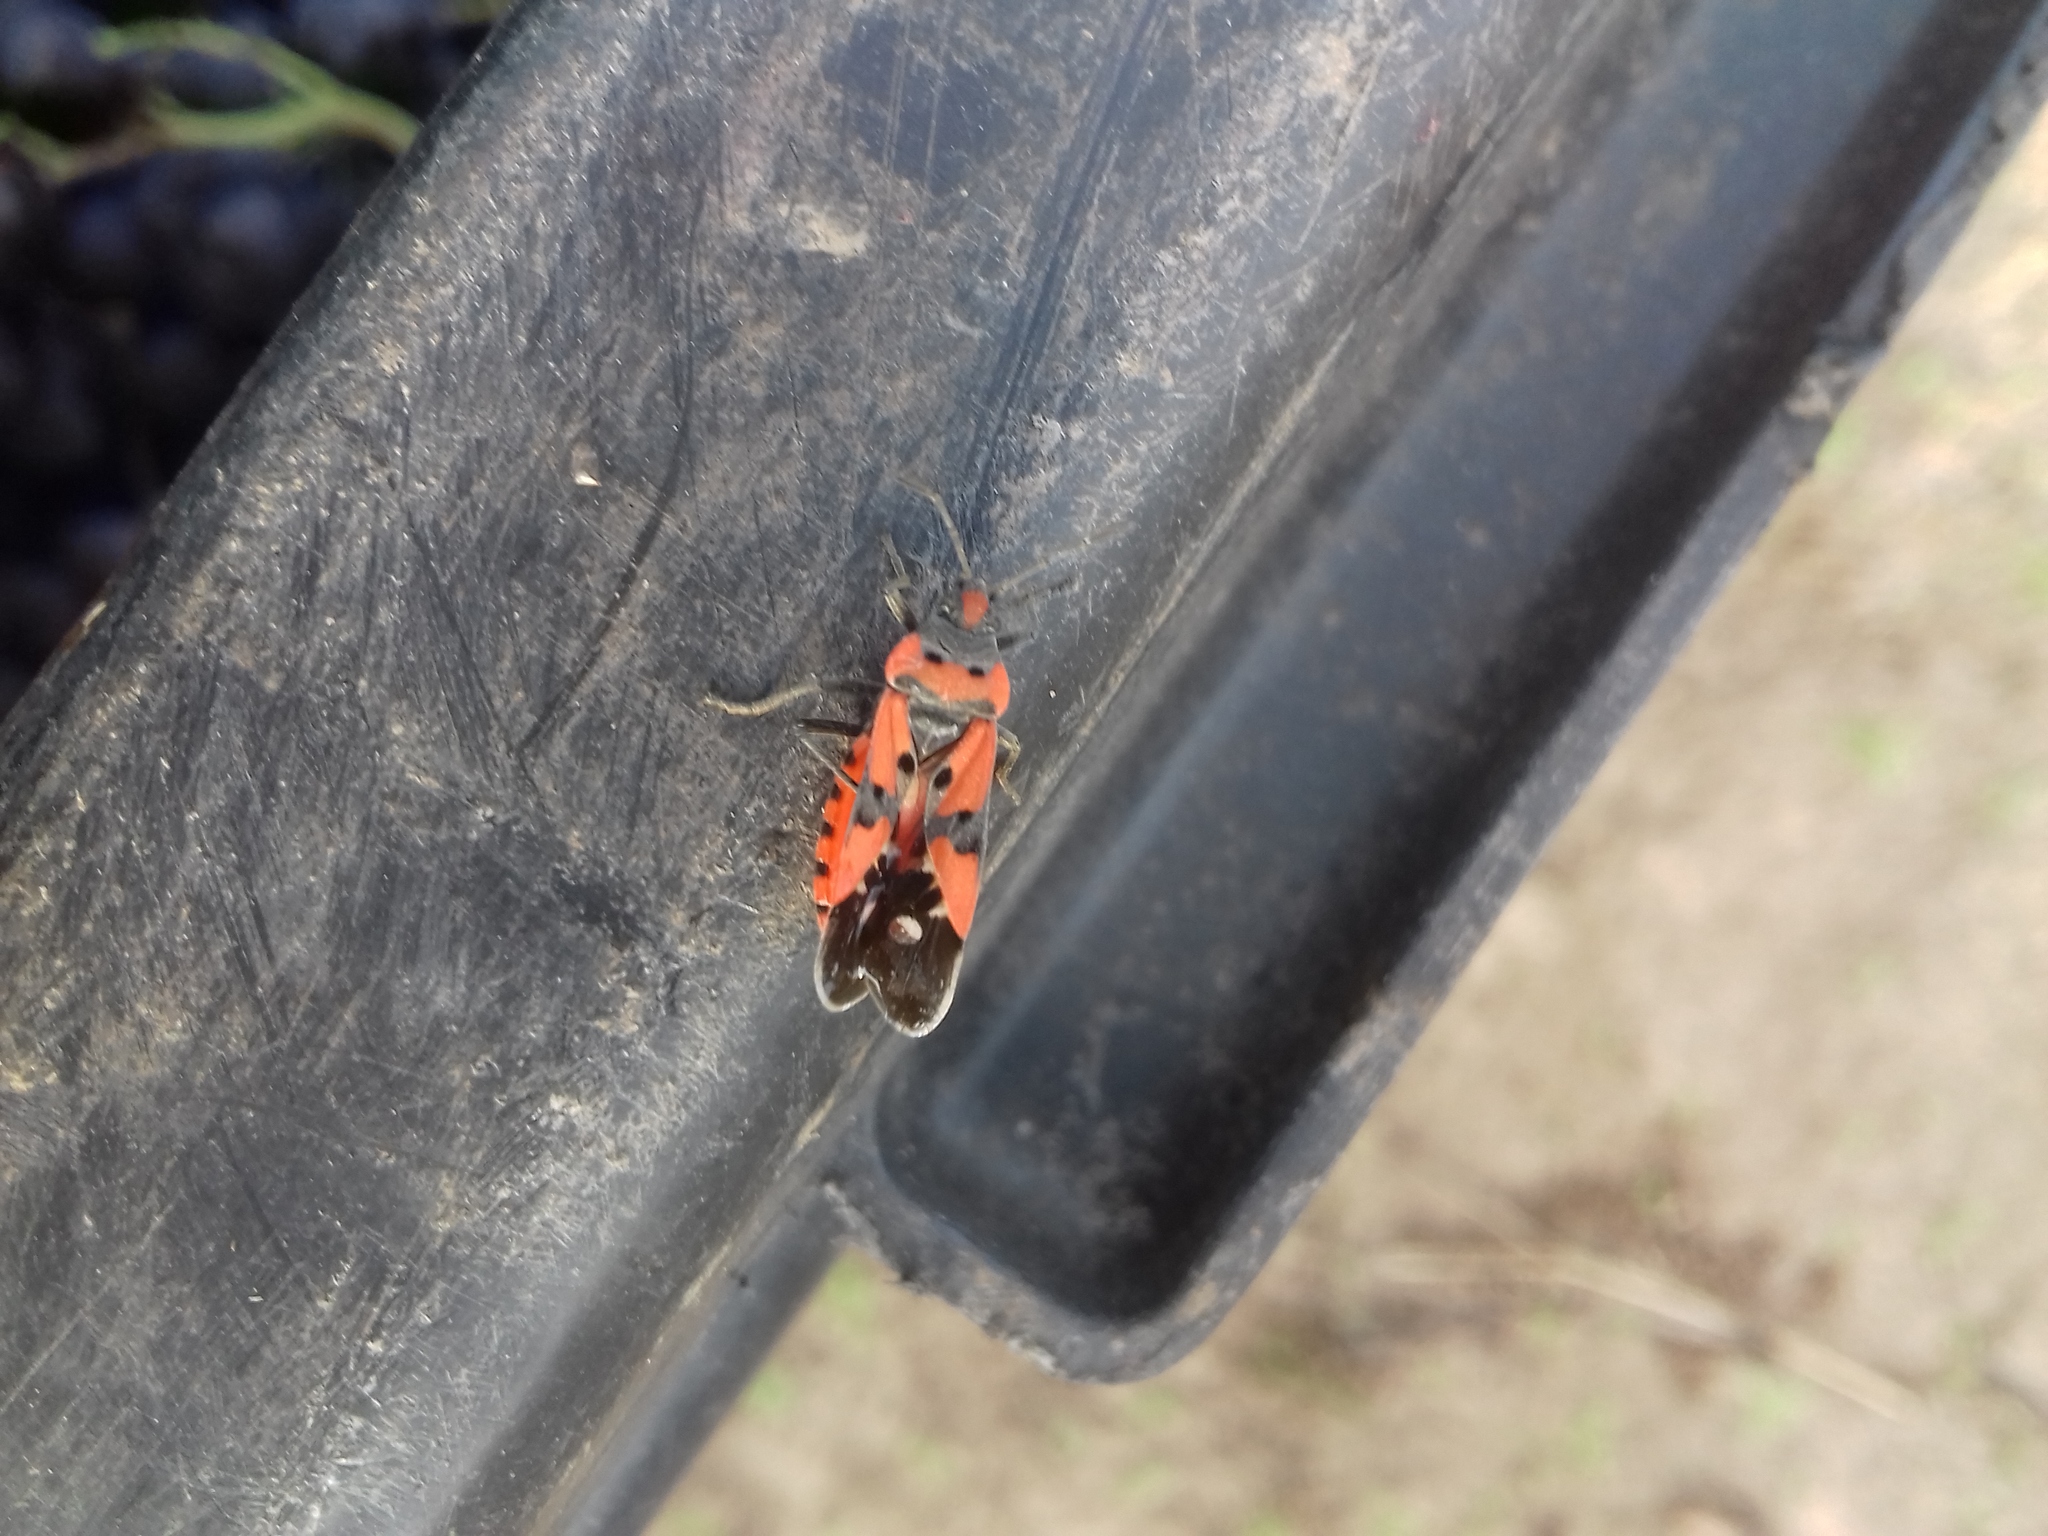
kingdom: Animalia
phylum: Arthropoda
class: Insecta
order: Hemiptera
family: Lygaeidae
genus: Lygaeus
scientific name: Lygaeus equestris
